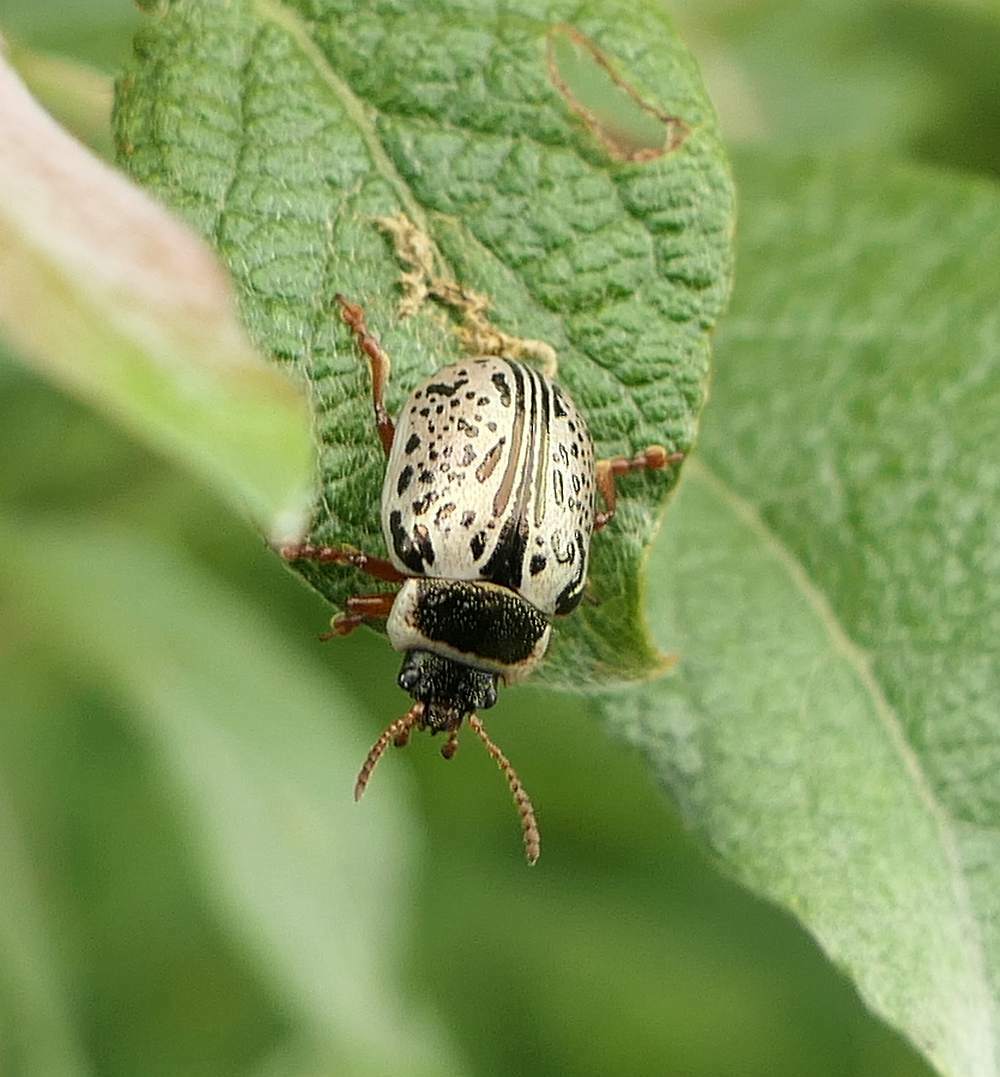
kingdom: Animalia
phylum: Arthropoda
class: Insecta
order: Coleoptera
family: Chrysomelidae
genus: Calligrapha
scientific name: Calligrapha multipunctata
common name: Common willow calligrapher beetle
